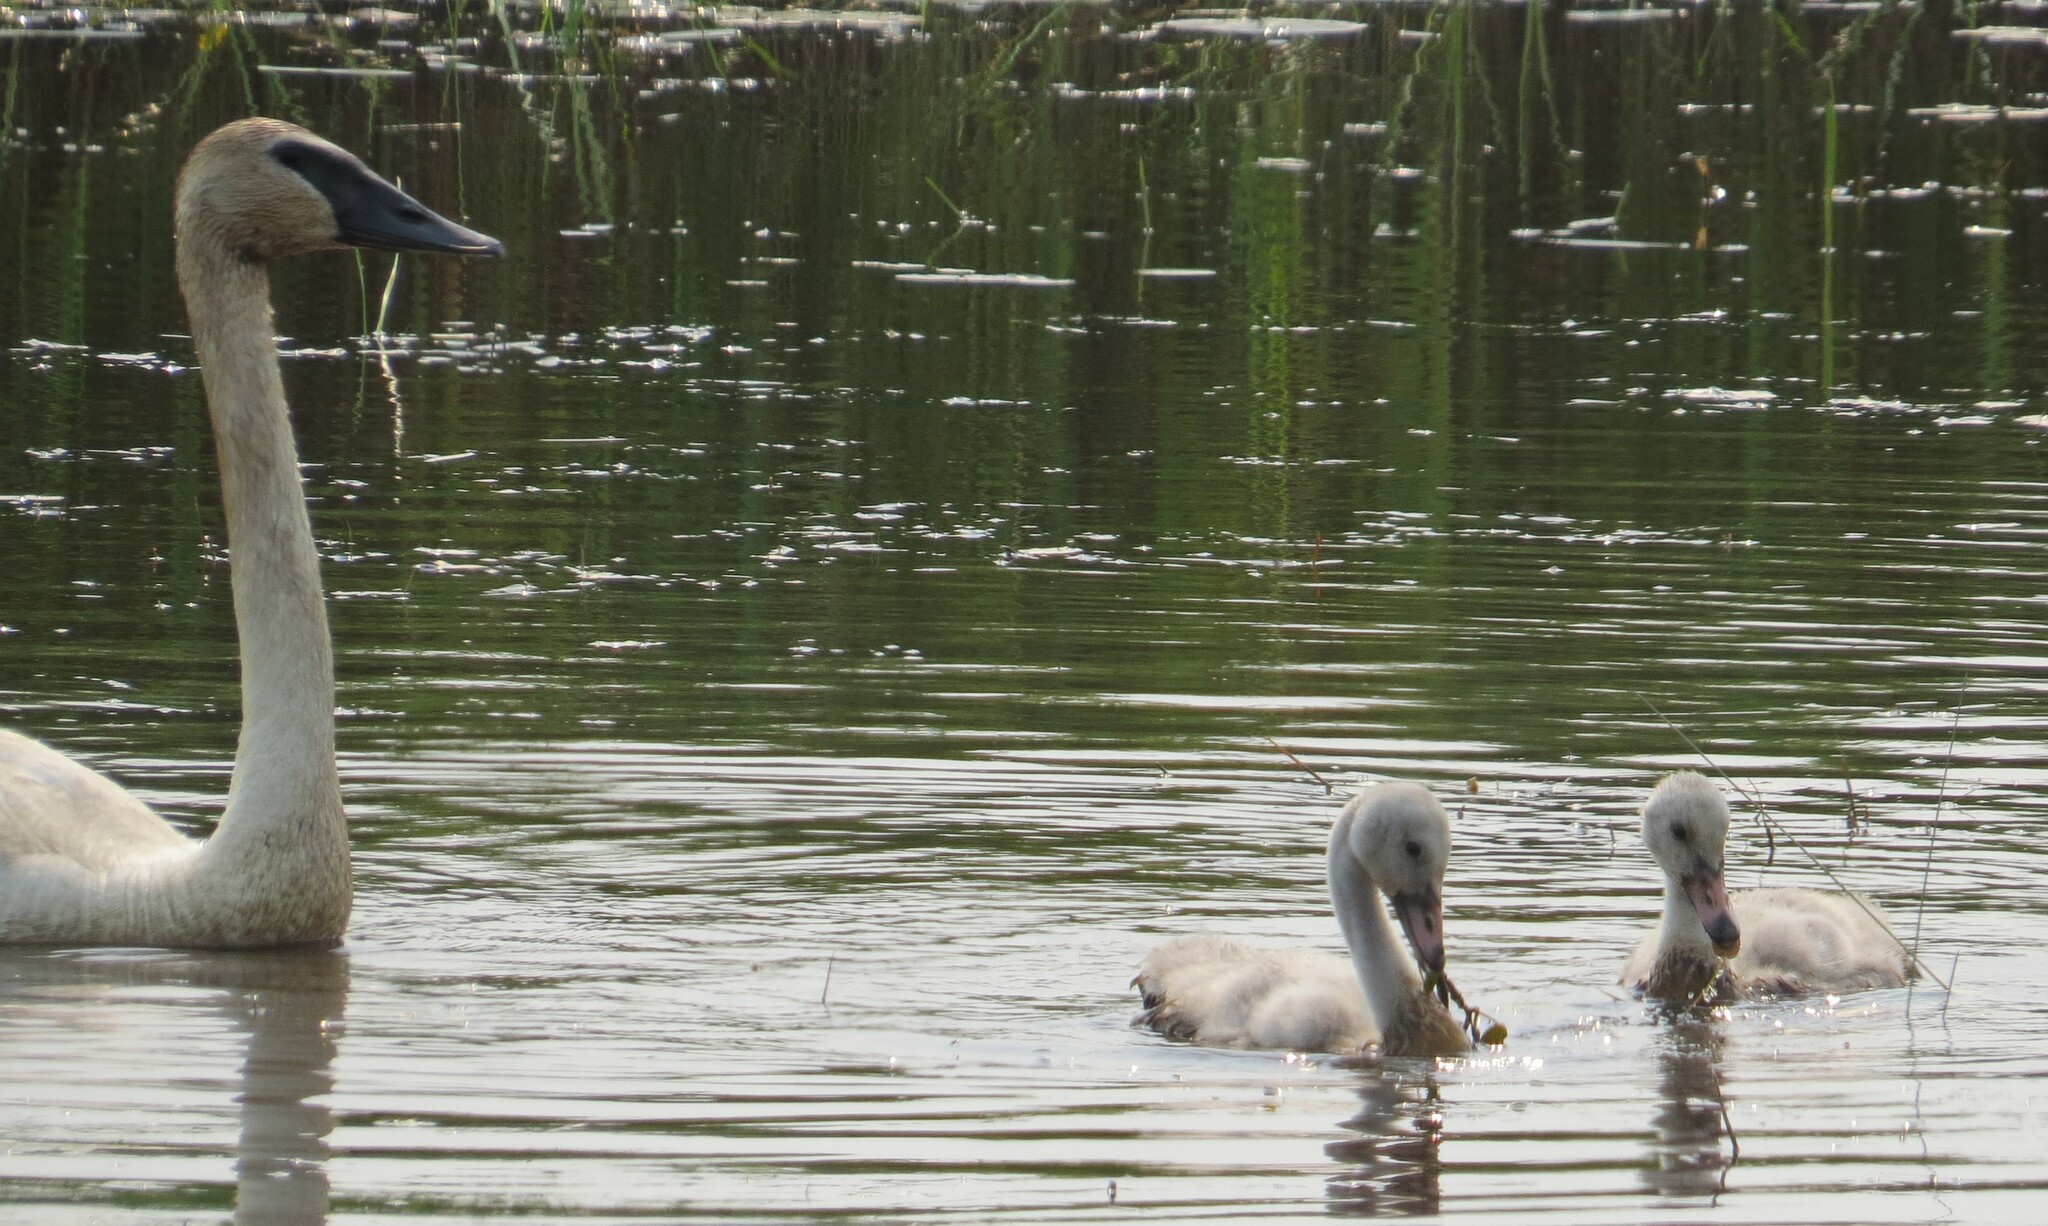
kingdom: Animalia
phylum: Chordata
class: Aves
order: Anseriformes
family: Anatidae
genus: Cygnus
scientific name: Cygnus buccinator
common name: Trumpeter swan
